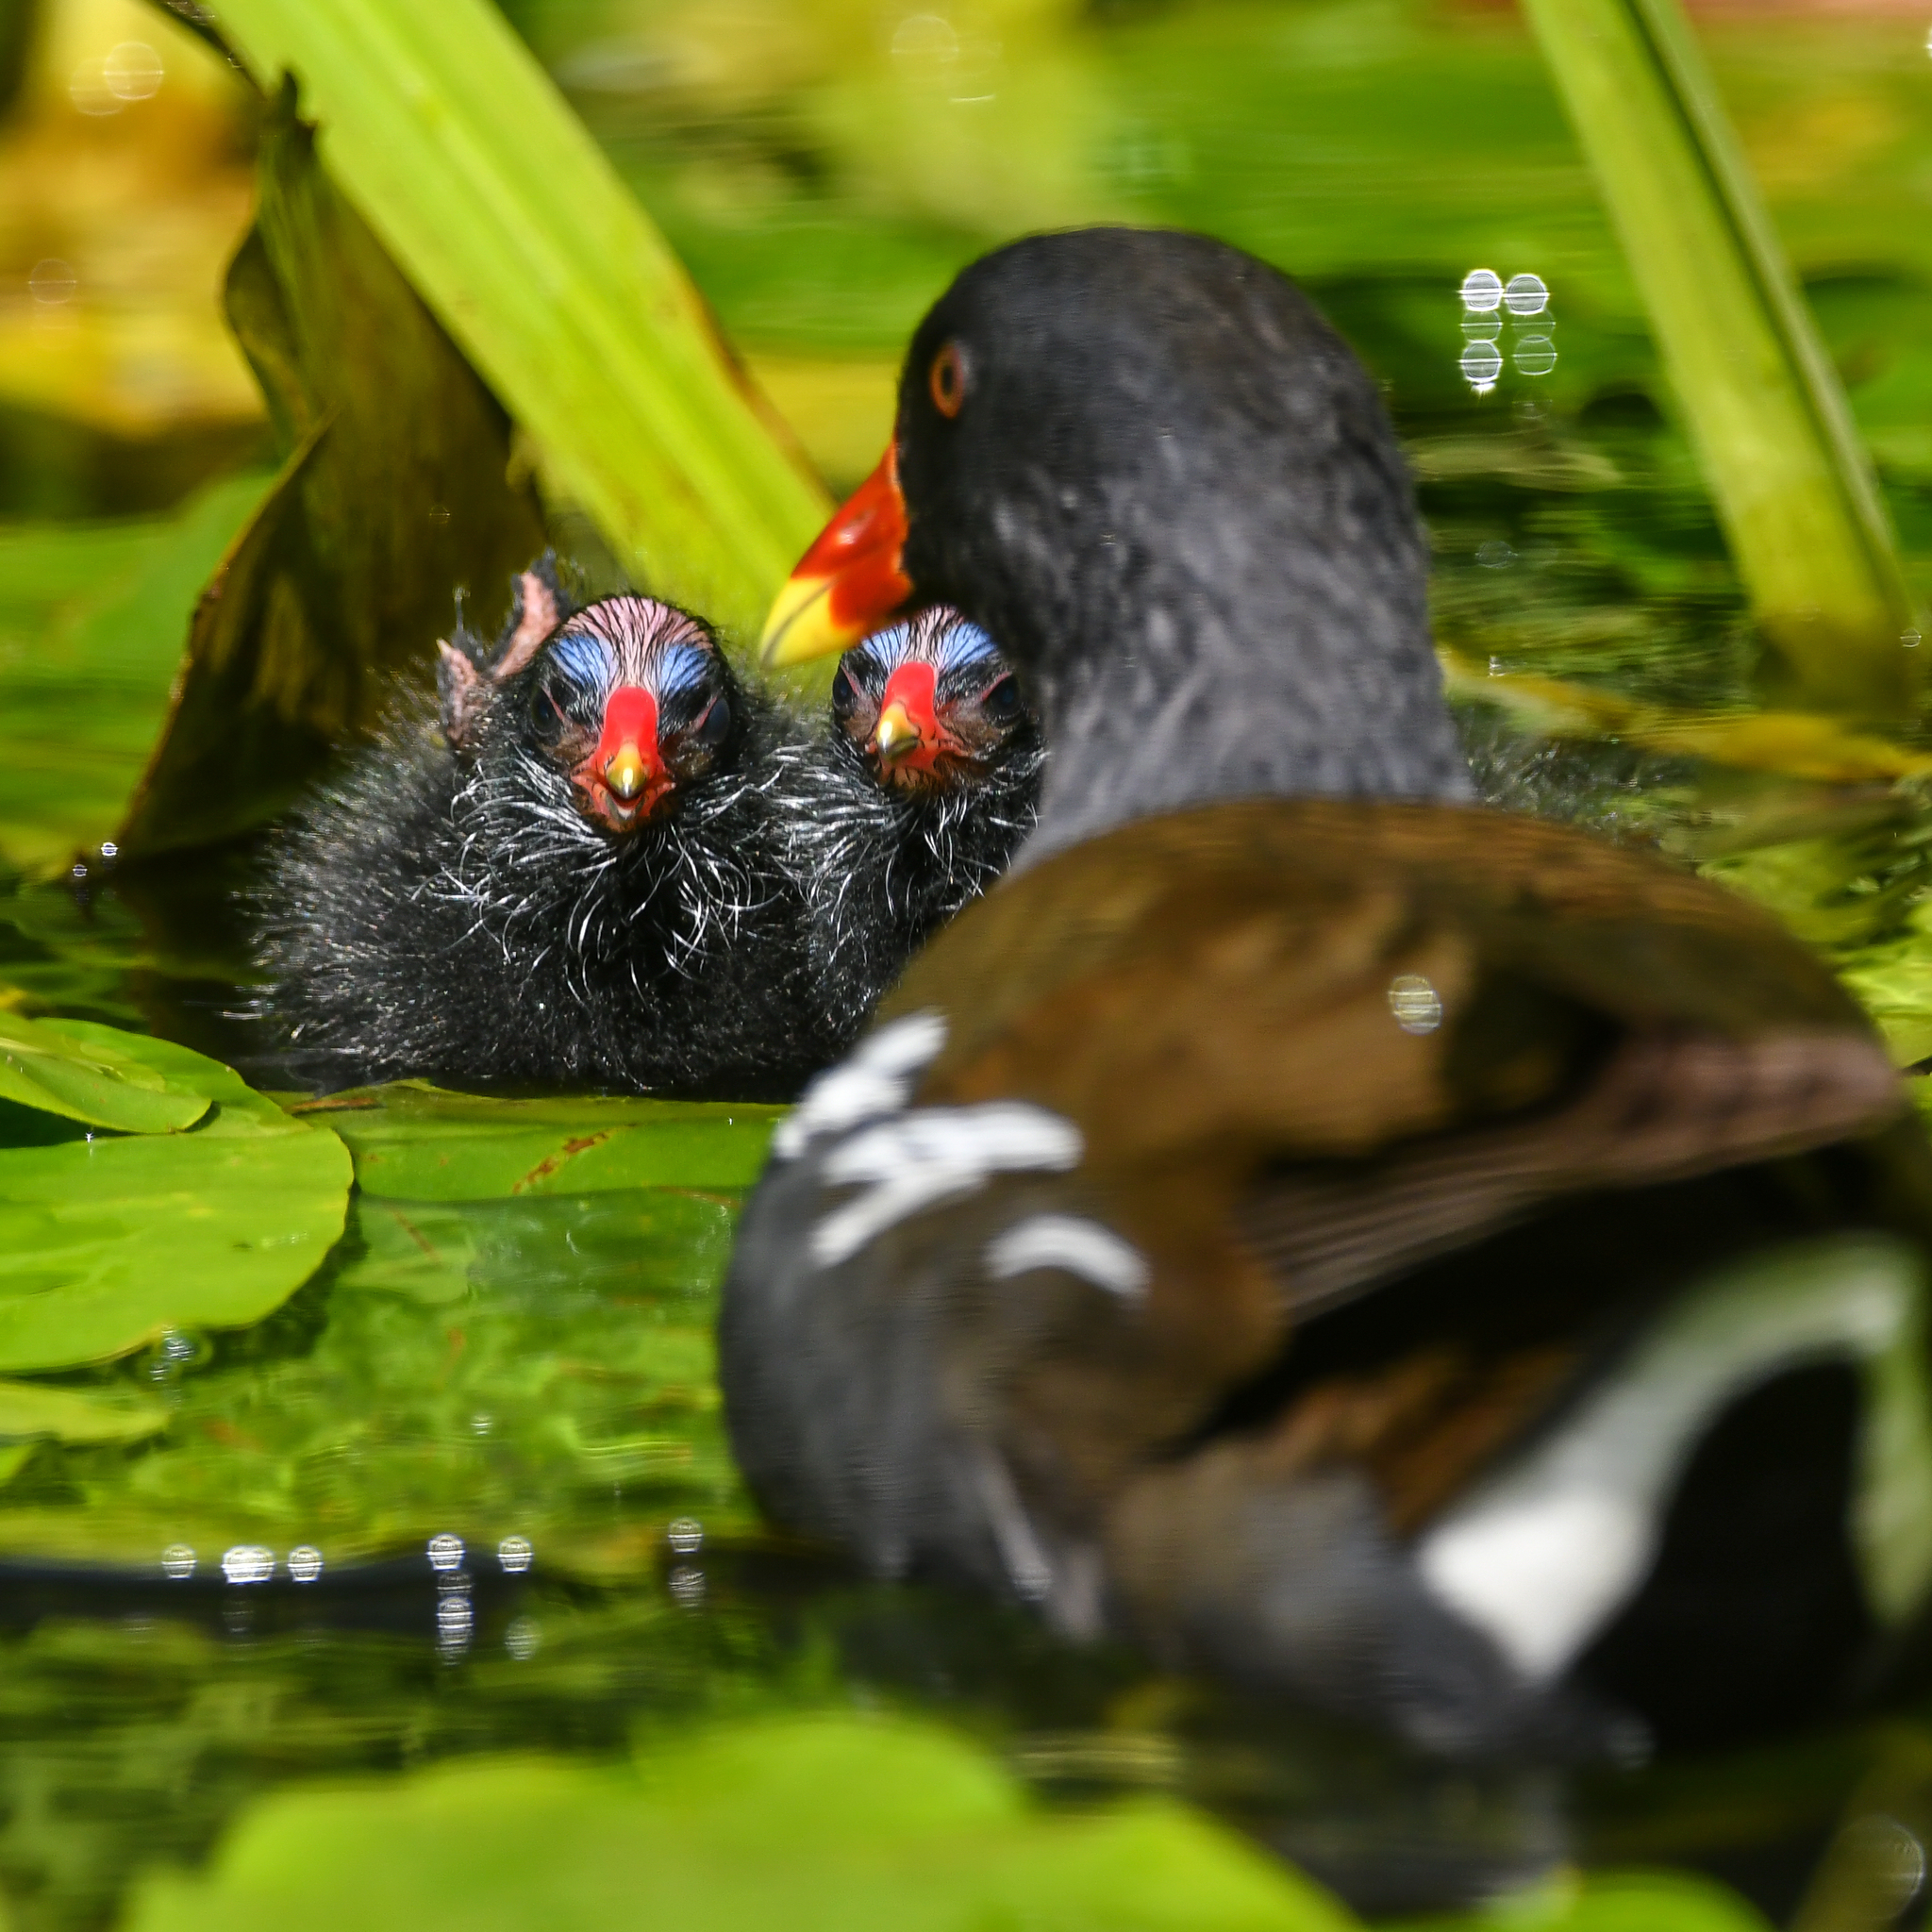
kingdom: Animalia
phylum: Chordata
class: Aves
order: Gruiformes
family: Rallidae
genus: Gallinula
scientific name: Gallinula chloropus
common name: Common moorhen
